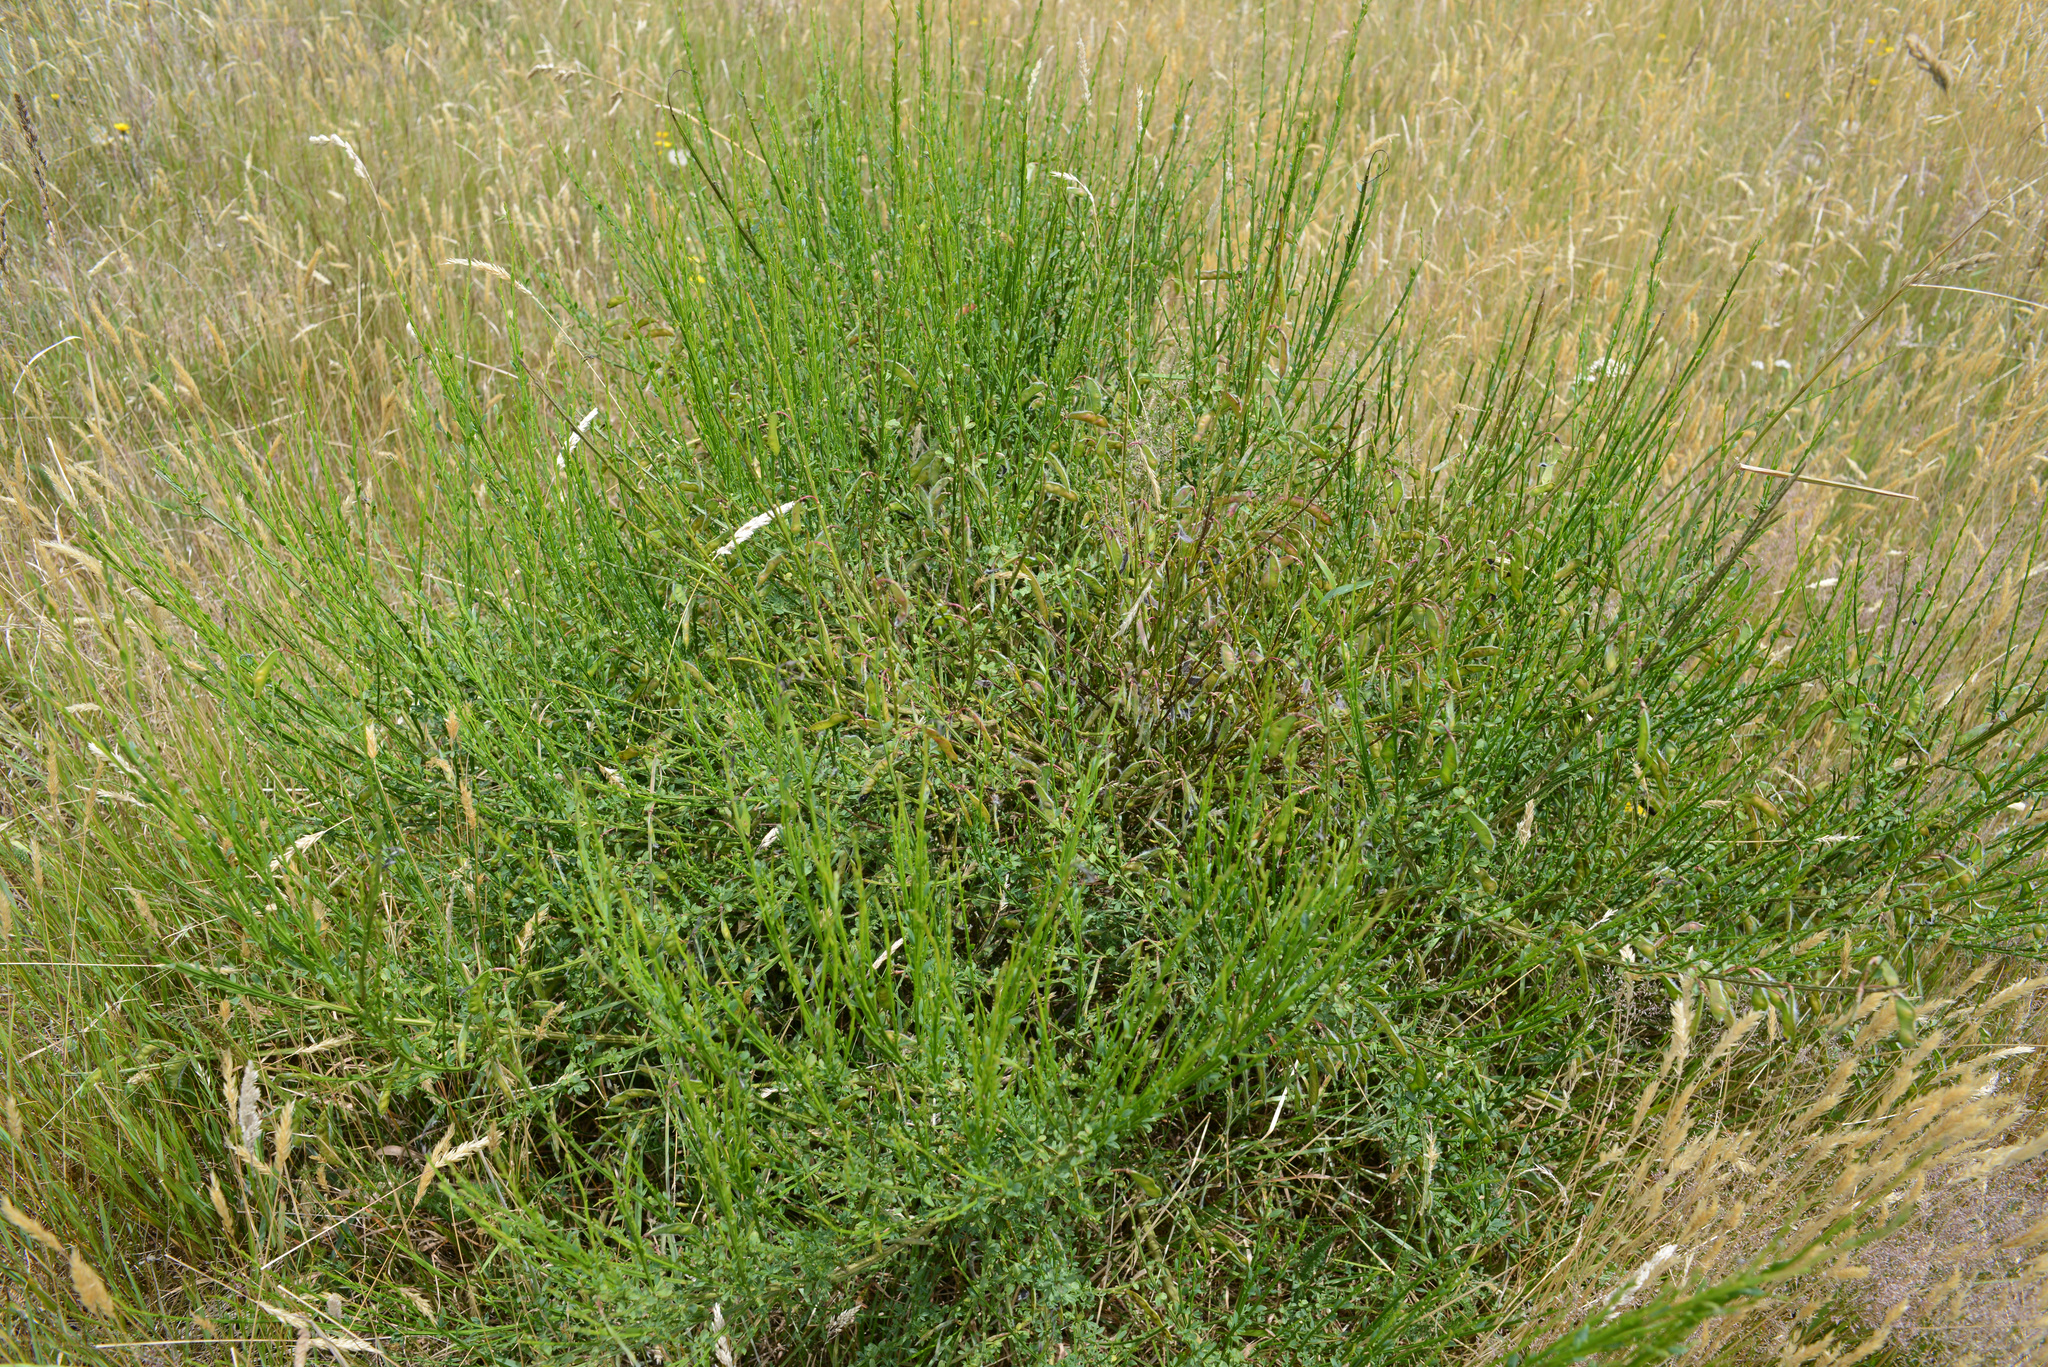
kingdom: Plantae
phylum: Tracheophyta
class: Magnoliopsida
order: Fabales
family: Fabaceae
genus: Cytisus
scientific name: Cytisus scoparius
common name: Scotch broom
